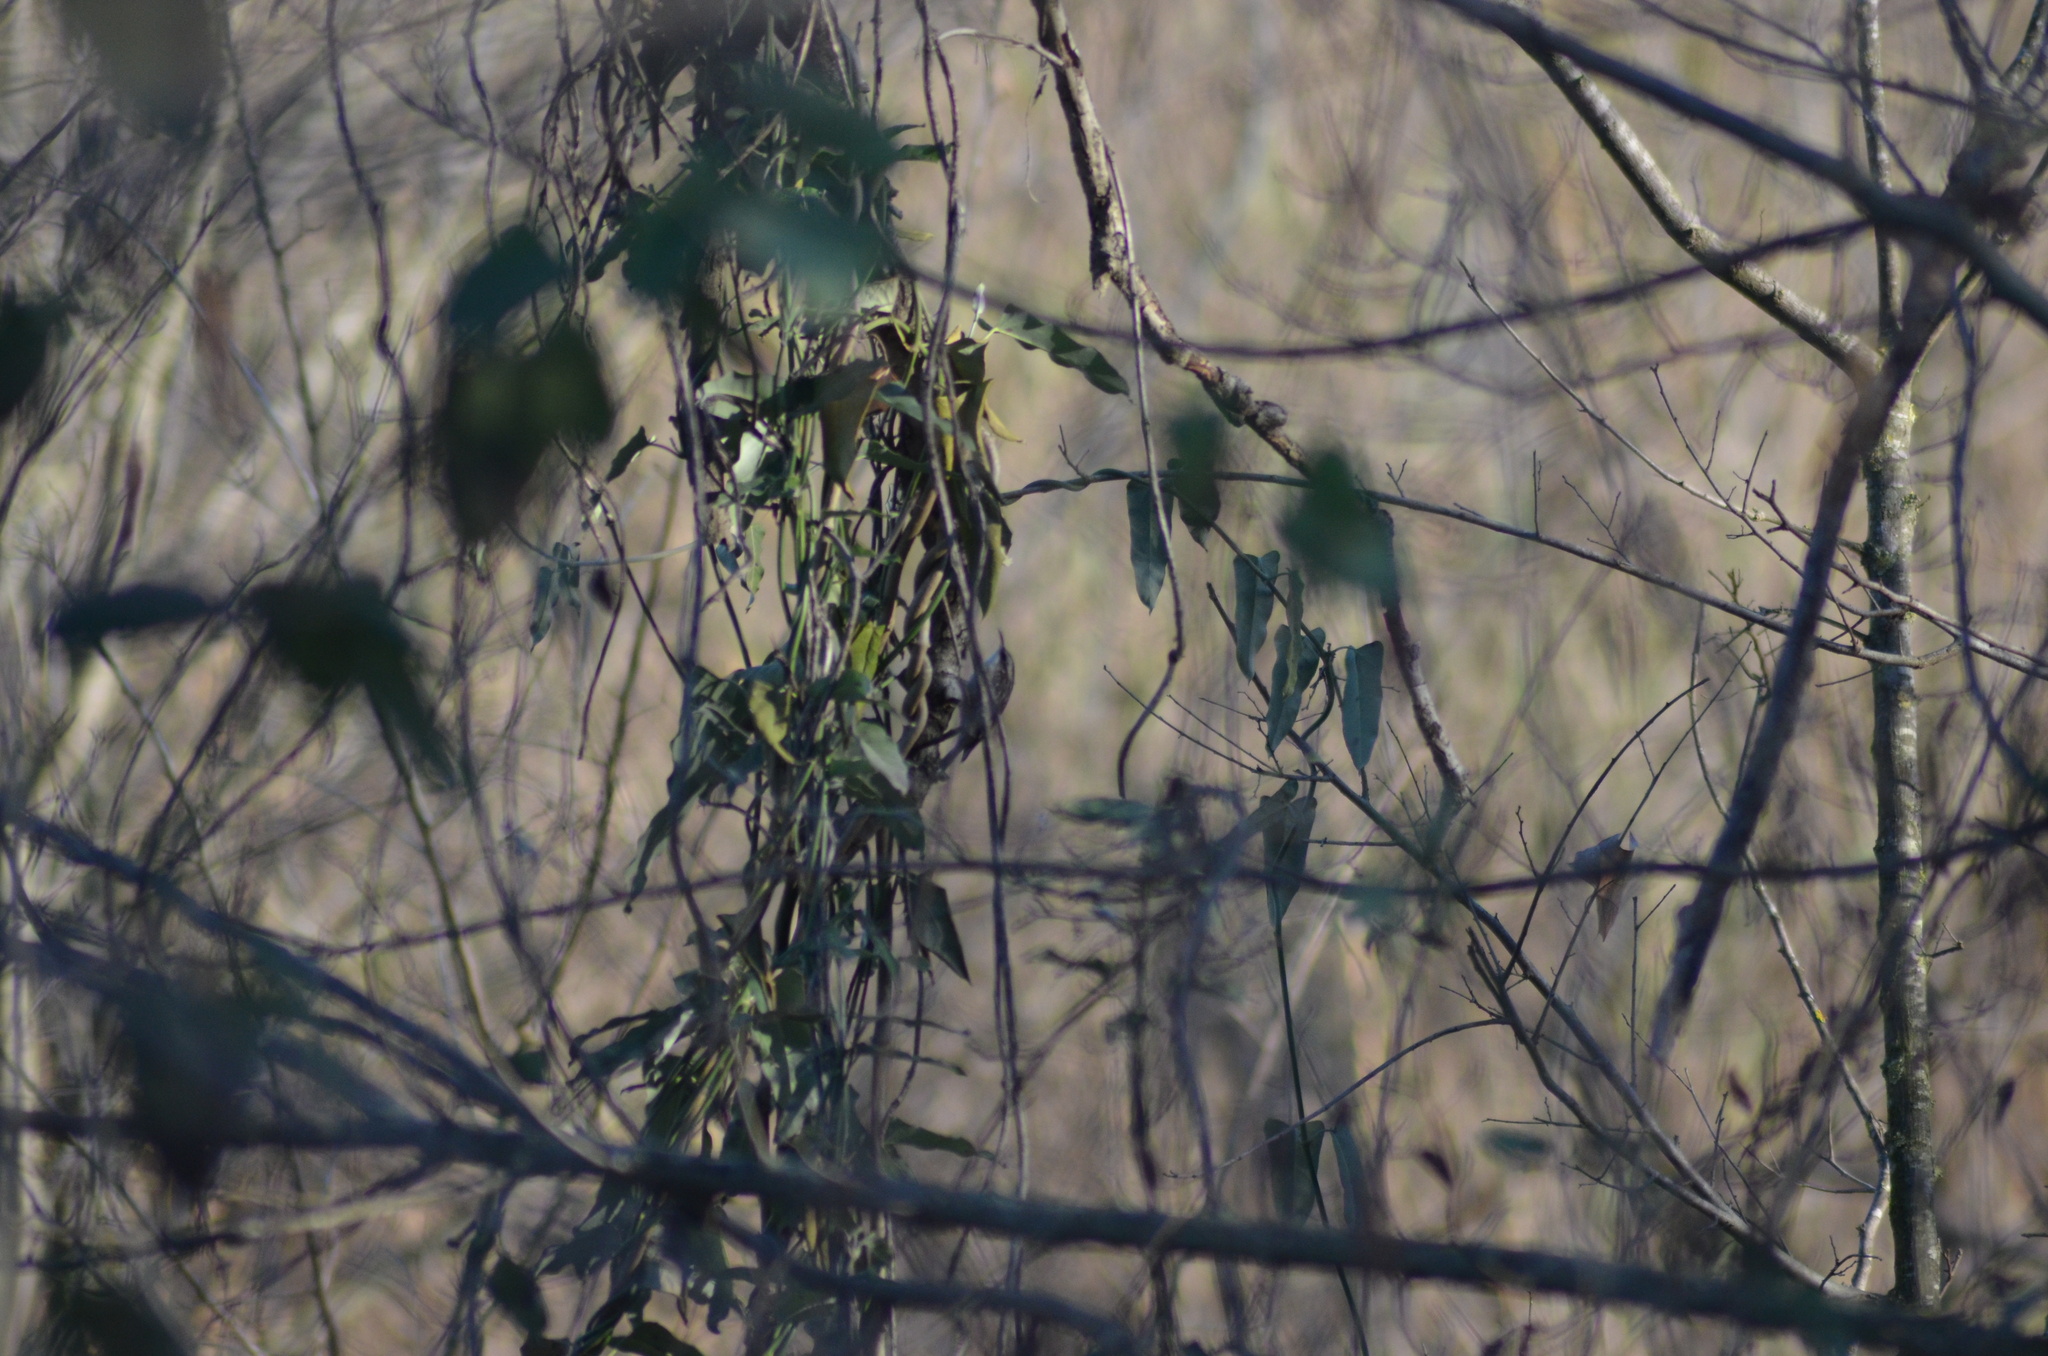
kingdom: Animalia
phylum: Chordata
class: Aves
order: Passeriformes
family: Certhiidae
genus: Certhia
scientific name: Certhia brachydactyla
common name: Short-toed treecreeper
